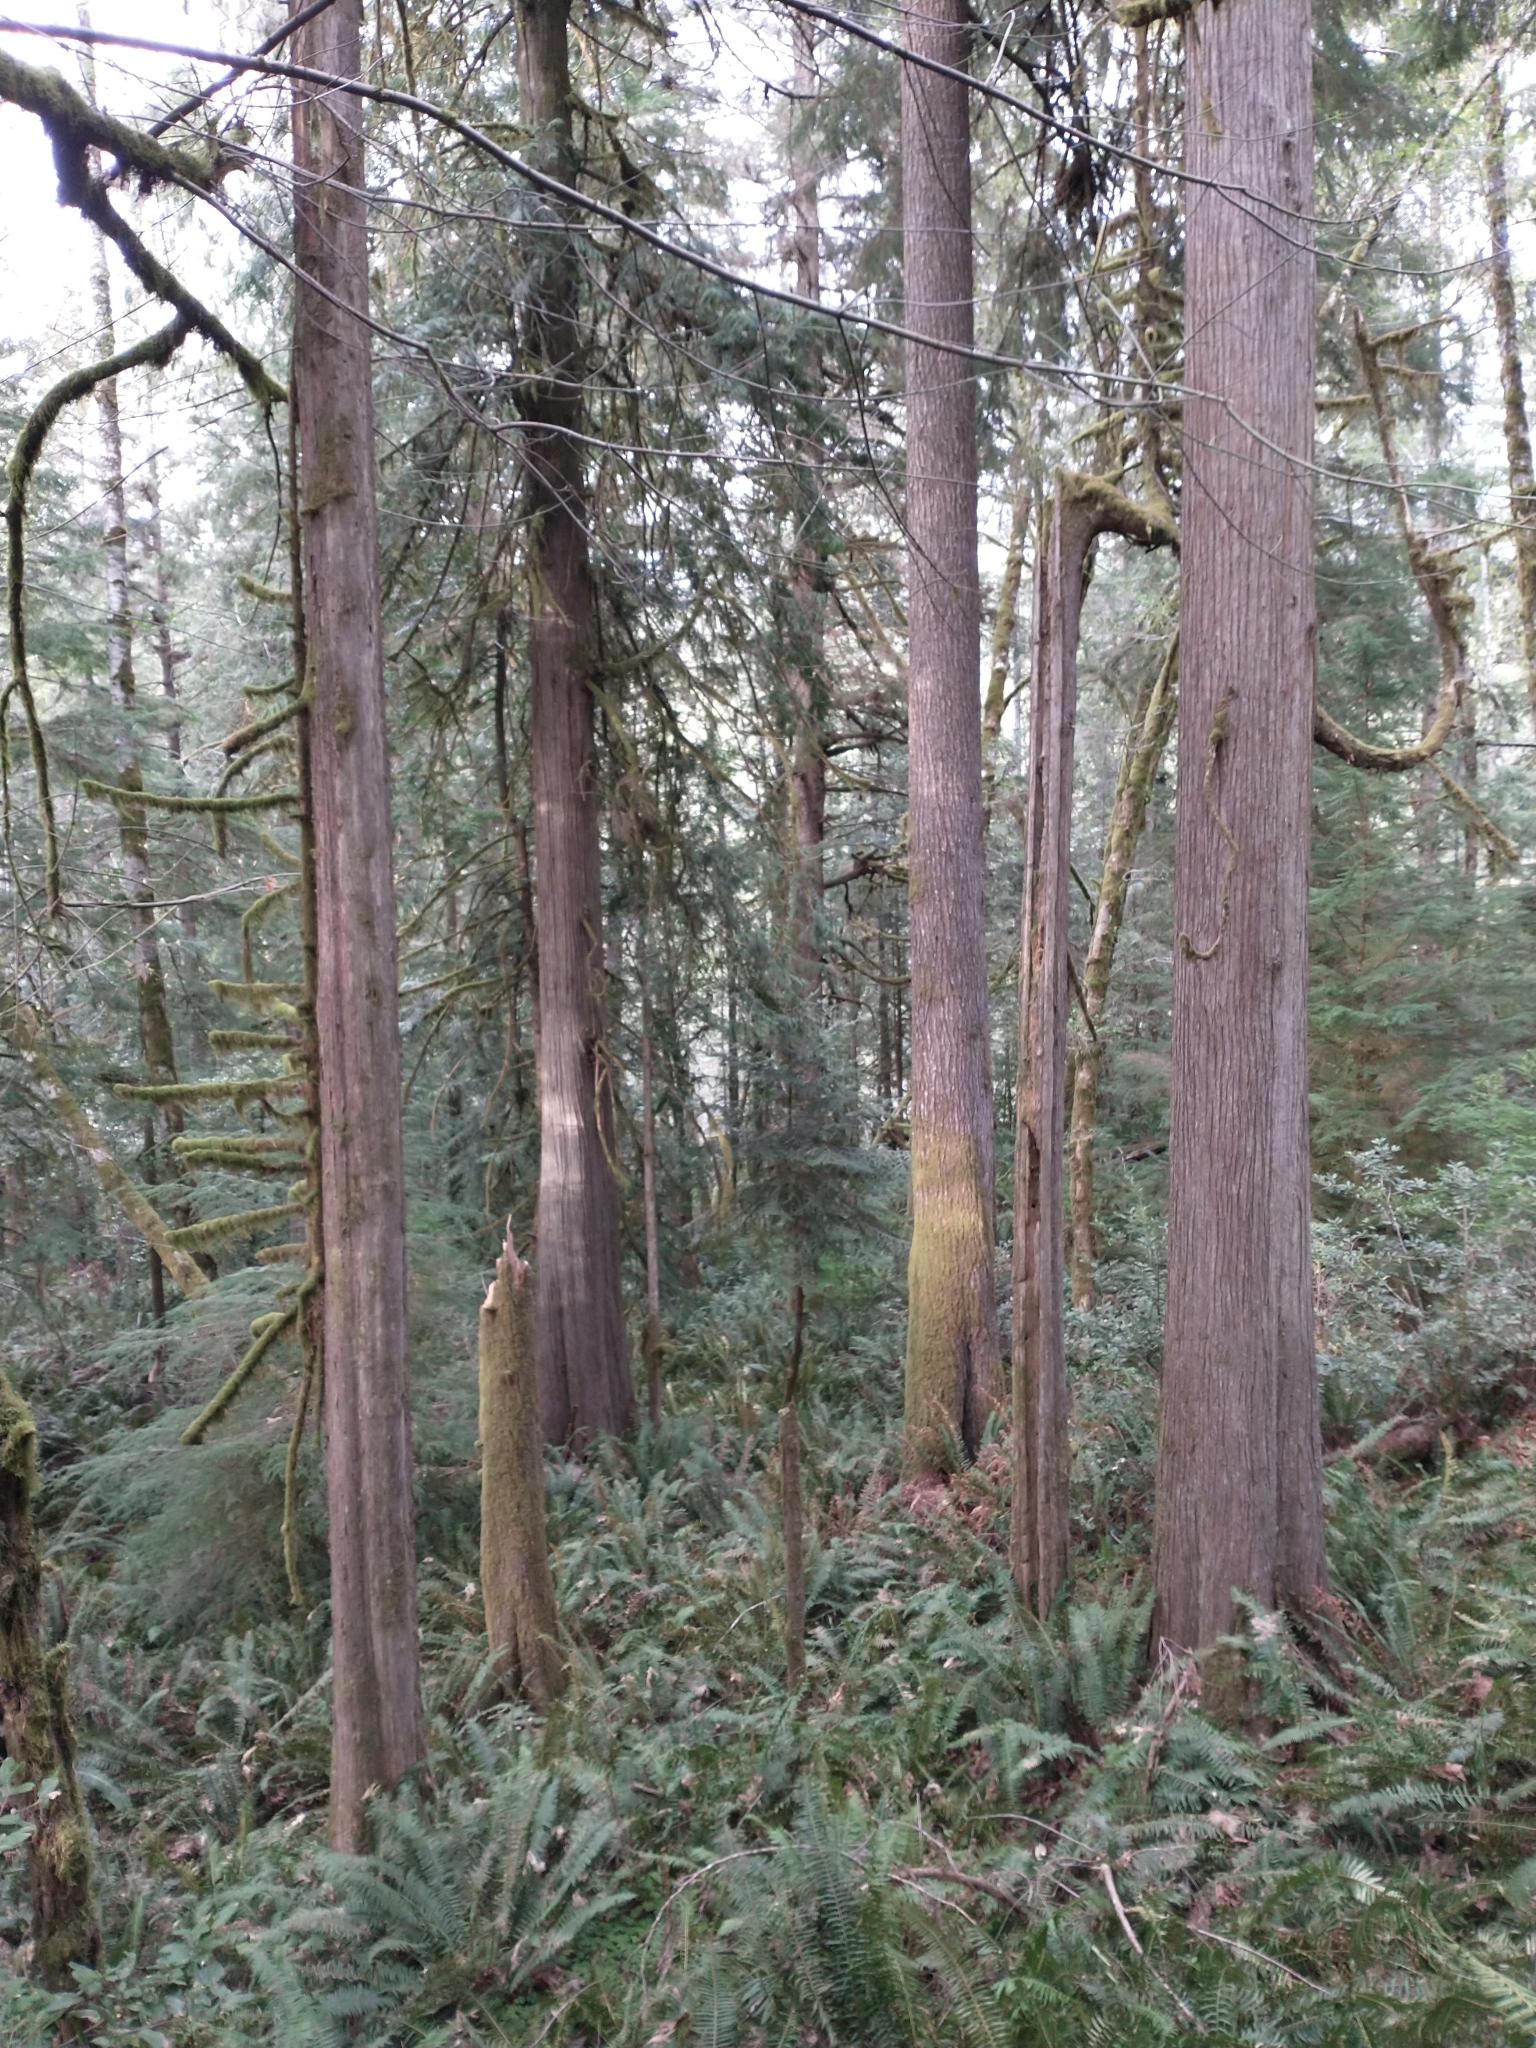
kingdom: Plantae
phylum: Tracheophyta
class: Pinopsida
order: Pinales
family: Cupressaceae
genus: Thuja
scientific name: Thuja plicata
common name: Western red-cedar
